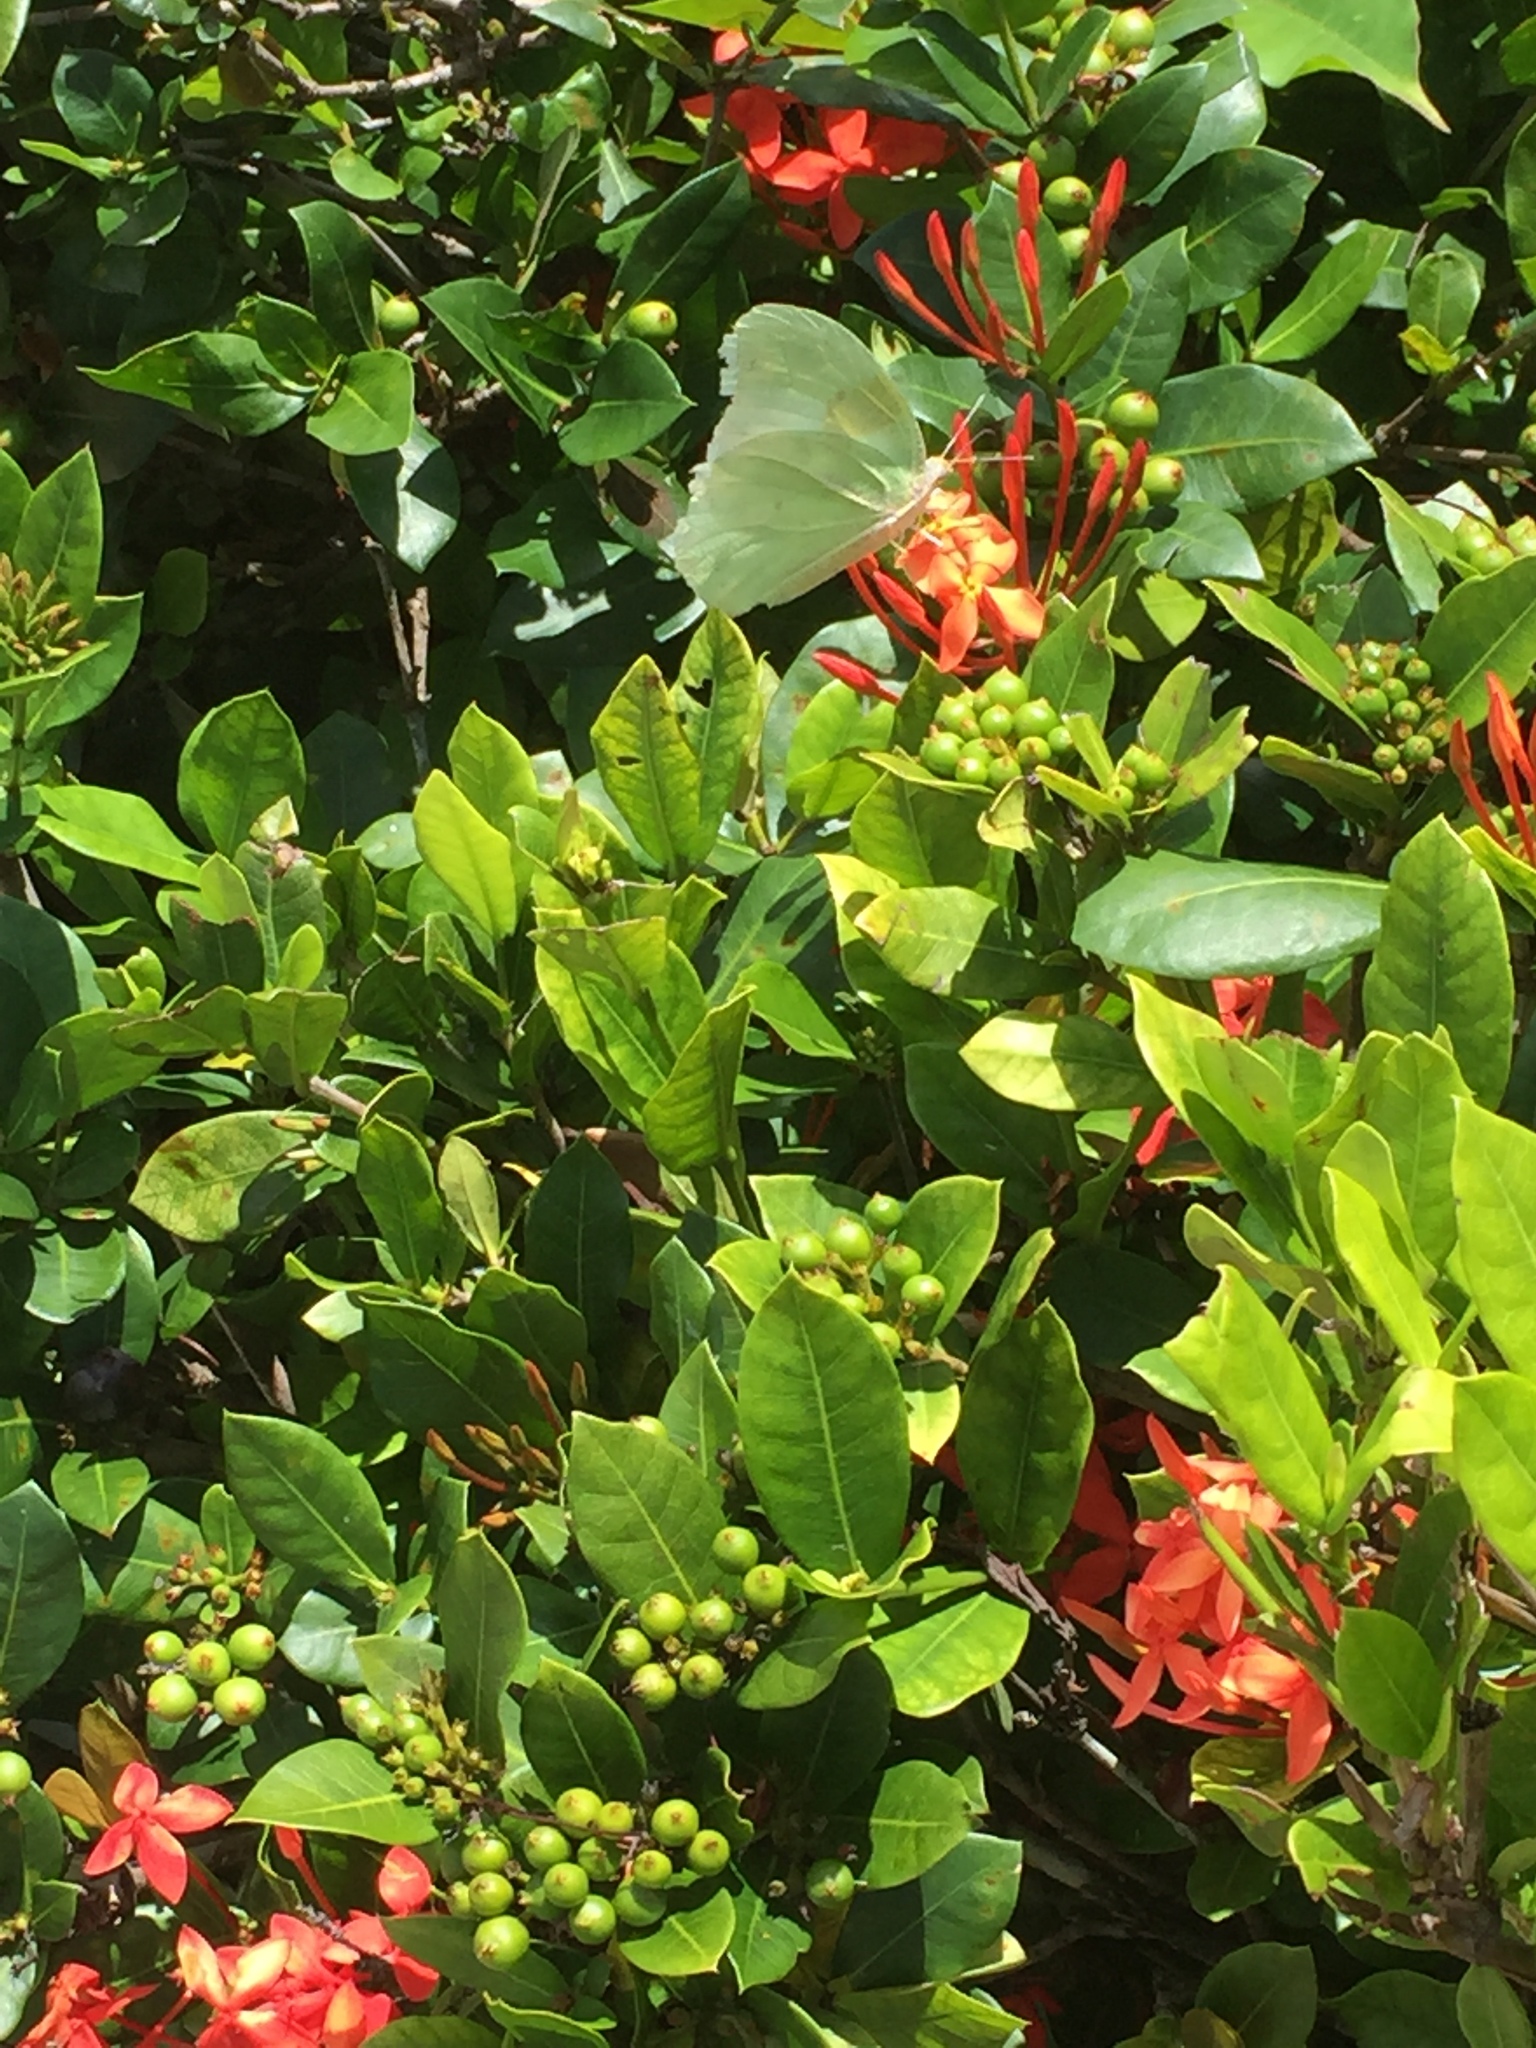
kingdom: Plantae
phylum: Tracheophyta
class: Magnoliopsida
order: Gentianales
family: Rubiaceae
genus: Ixora
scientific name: Ixora coccinea
